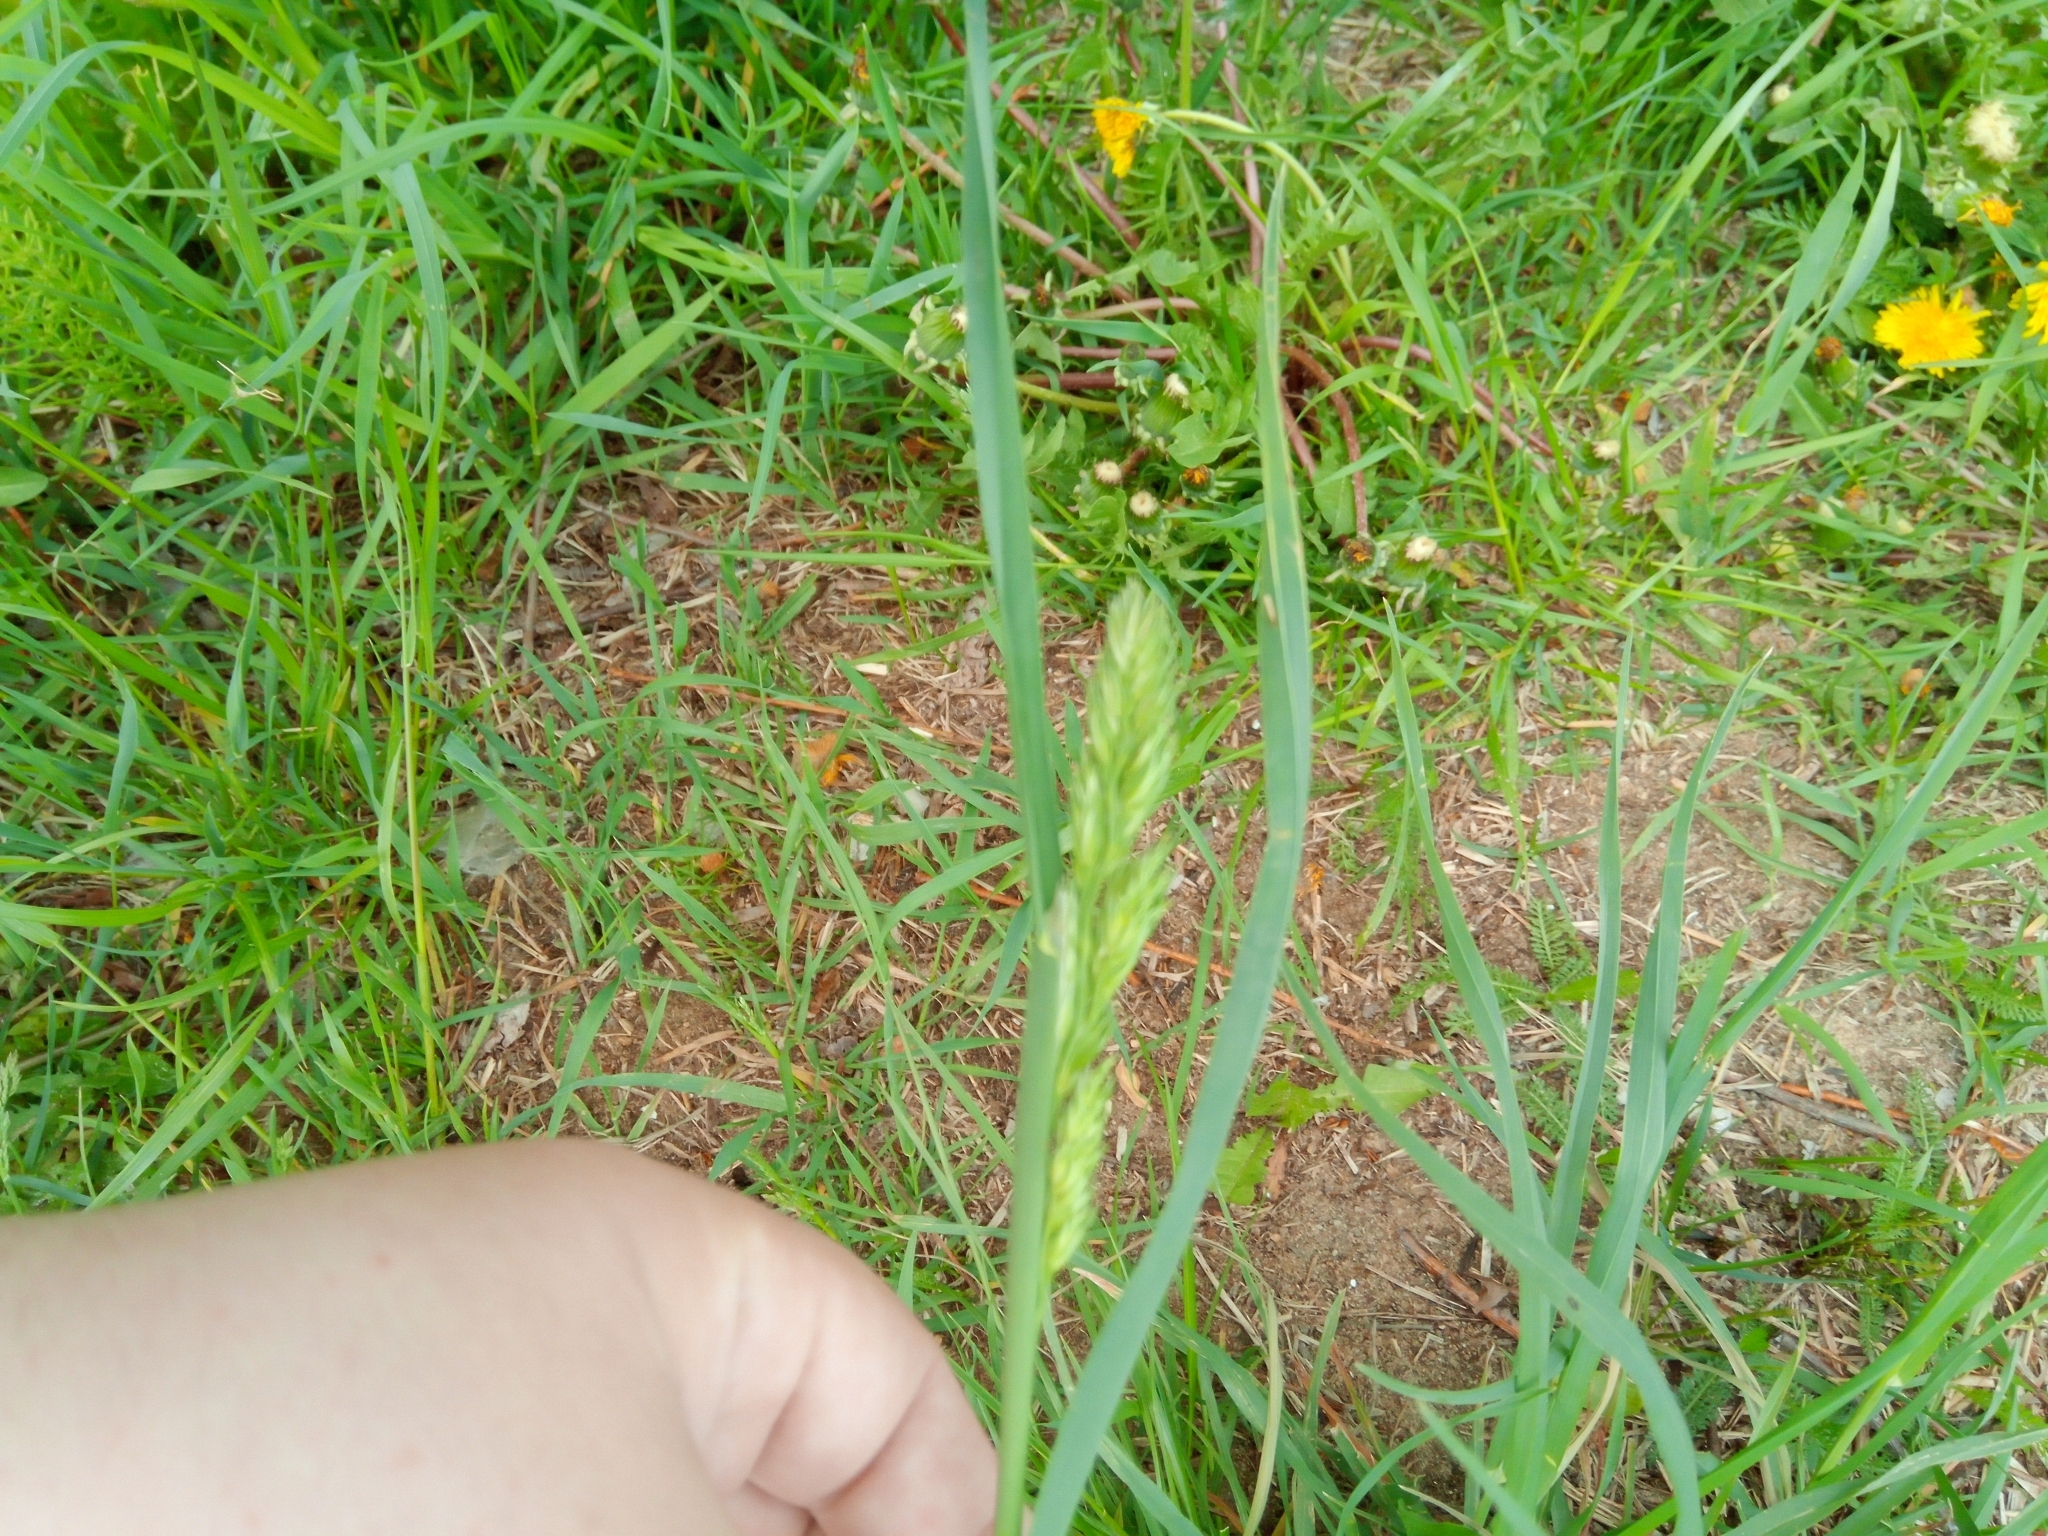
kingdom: Plantae
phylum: Tracheophyta
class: Liliopsida
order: Poales
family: Poaceae
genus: Dactylis
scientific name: Dactylis glomerata
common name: Orchardgrass
